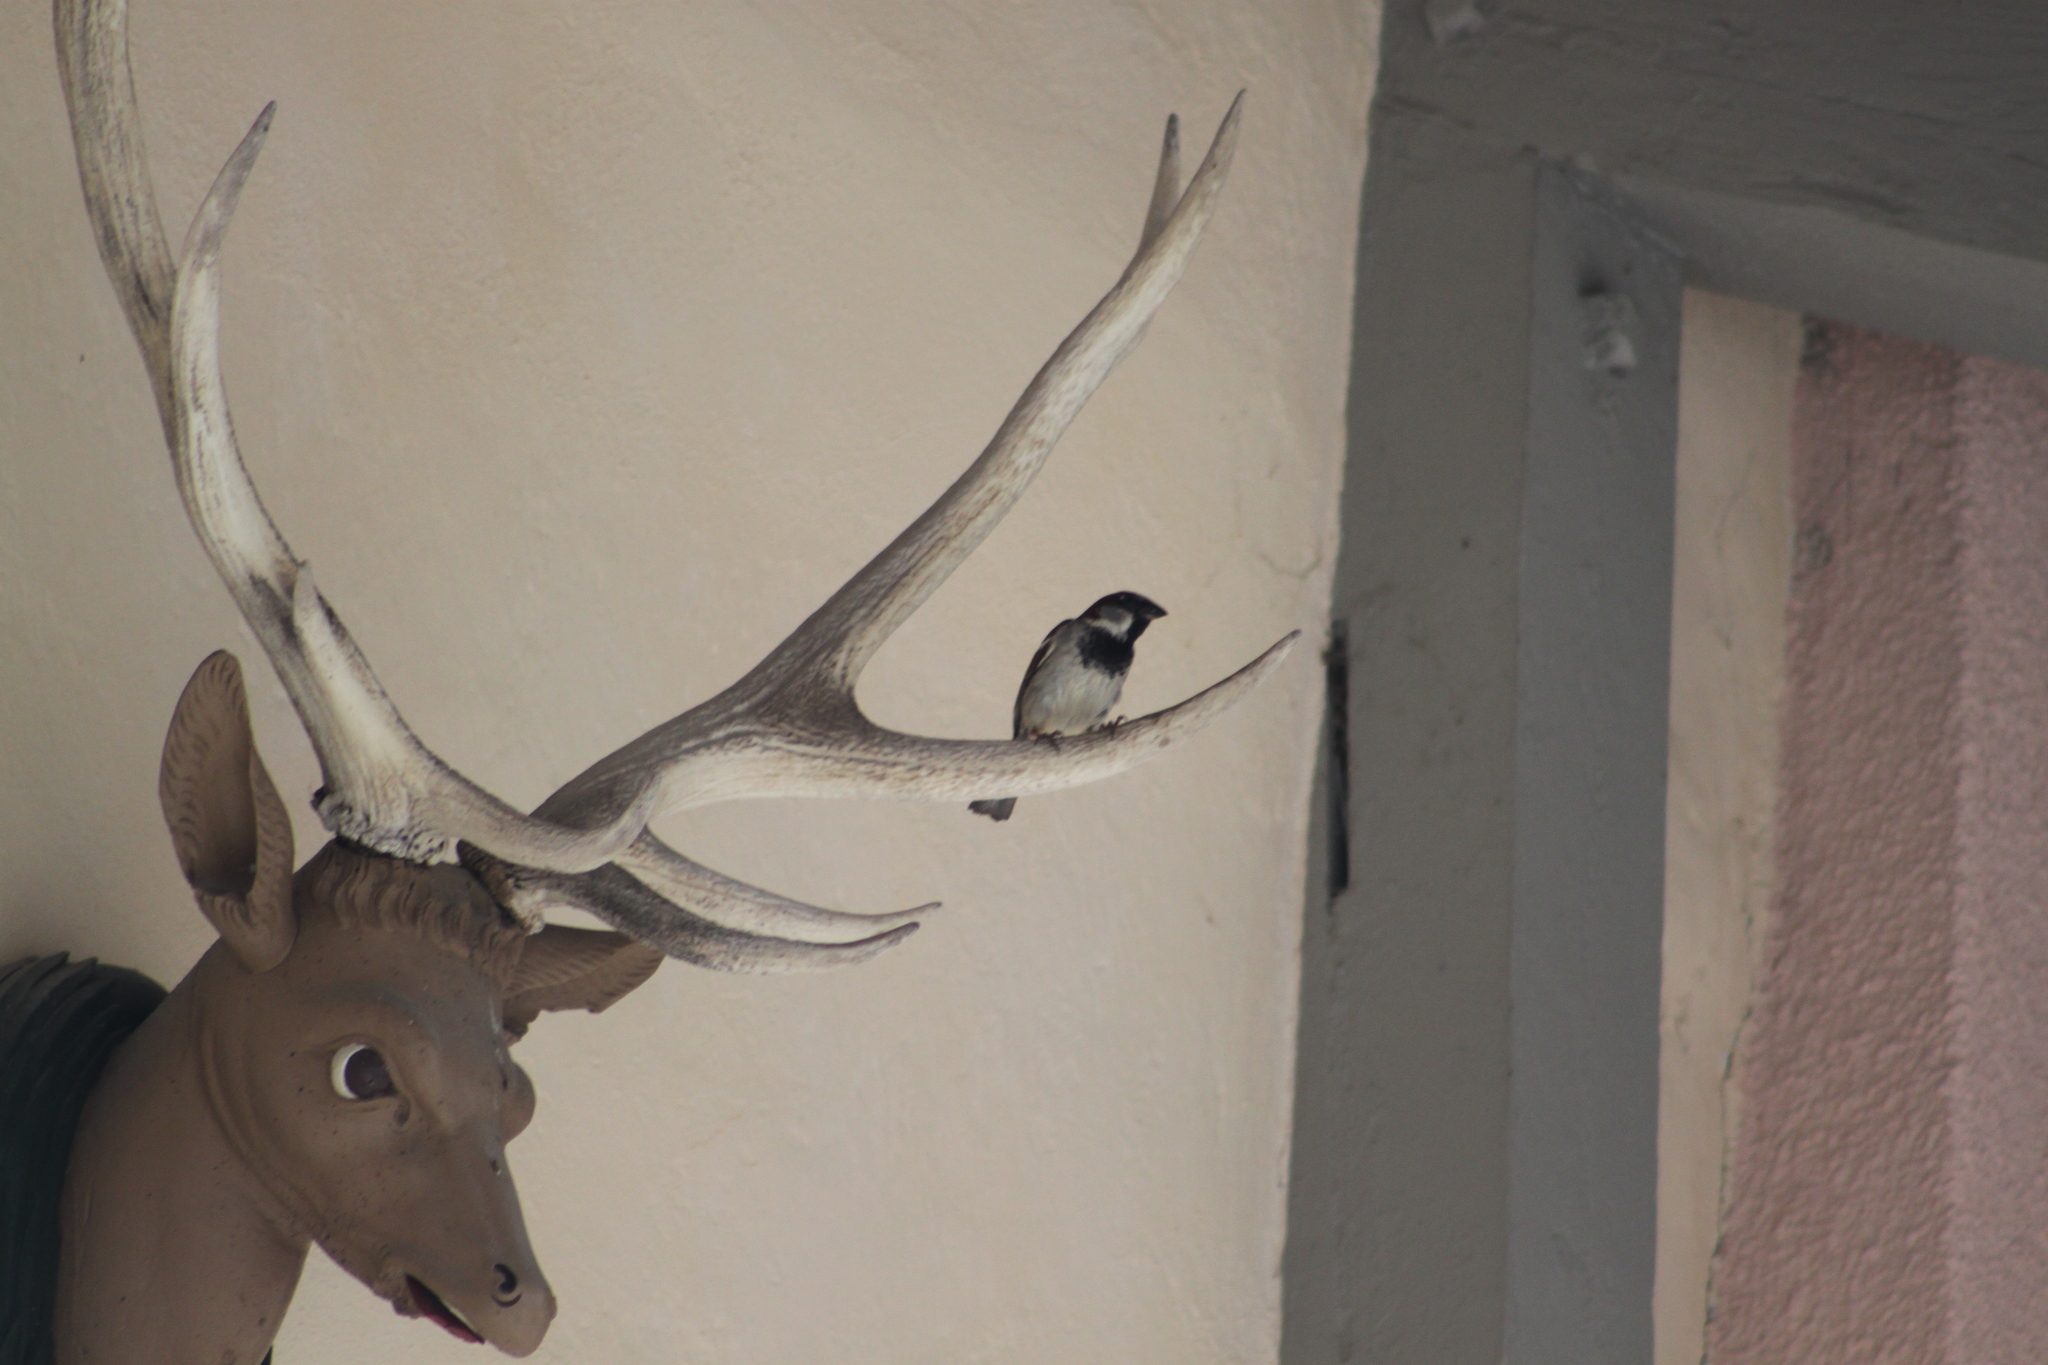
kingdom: Animalia
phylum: Chordata
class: Aves
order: Passeriformes
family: Passeridae
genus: Passer
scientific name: Passer domesticus
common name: House sparrow
